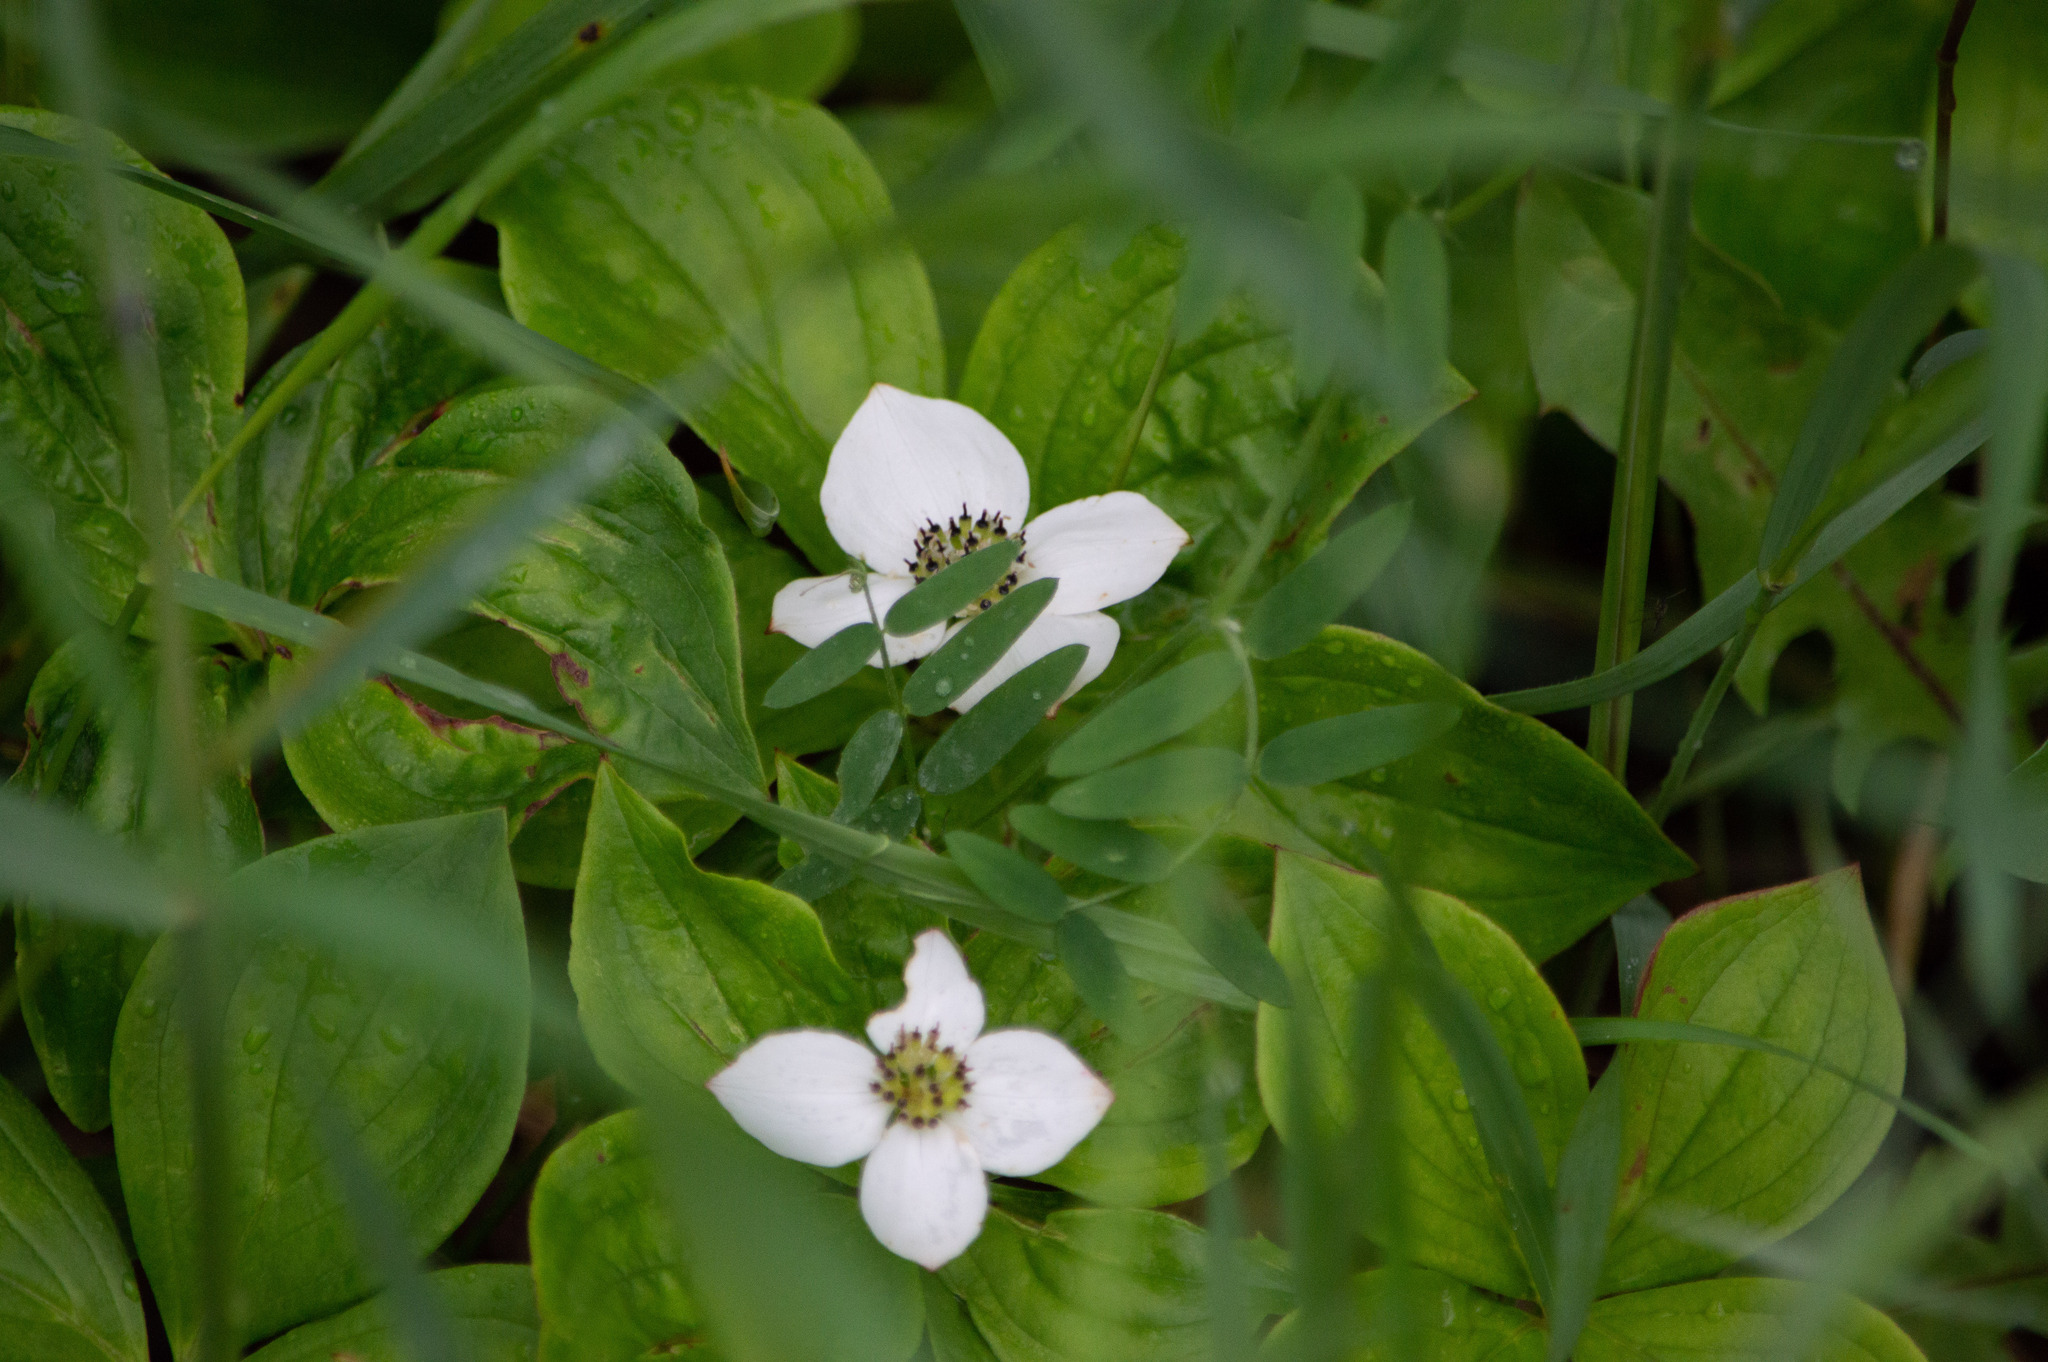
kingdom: Plantae
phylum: Tracheophyta
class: Magnoliopsida
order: Cornales
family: Cornaceae
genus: Cornus
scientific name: Cornus canadensis
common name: Creeping dogwood
